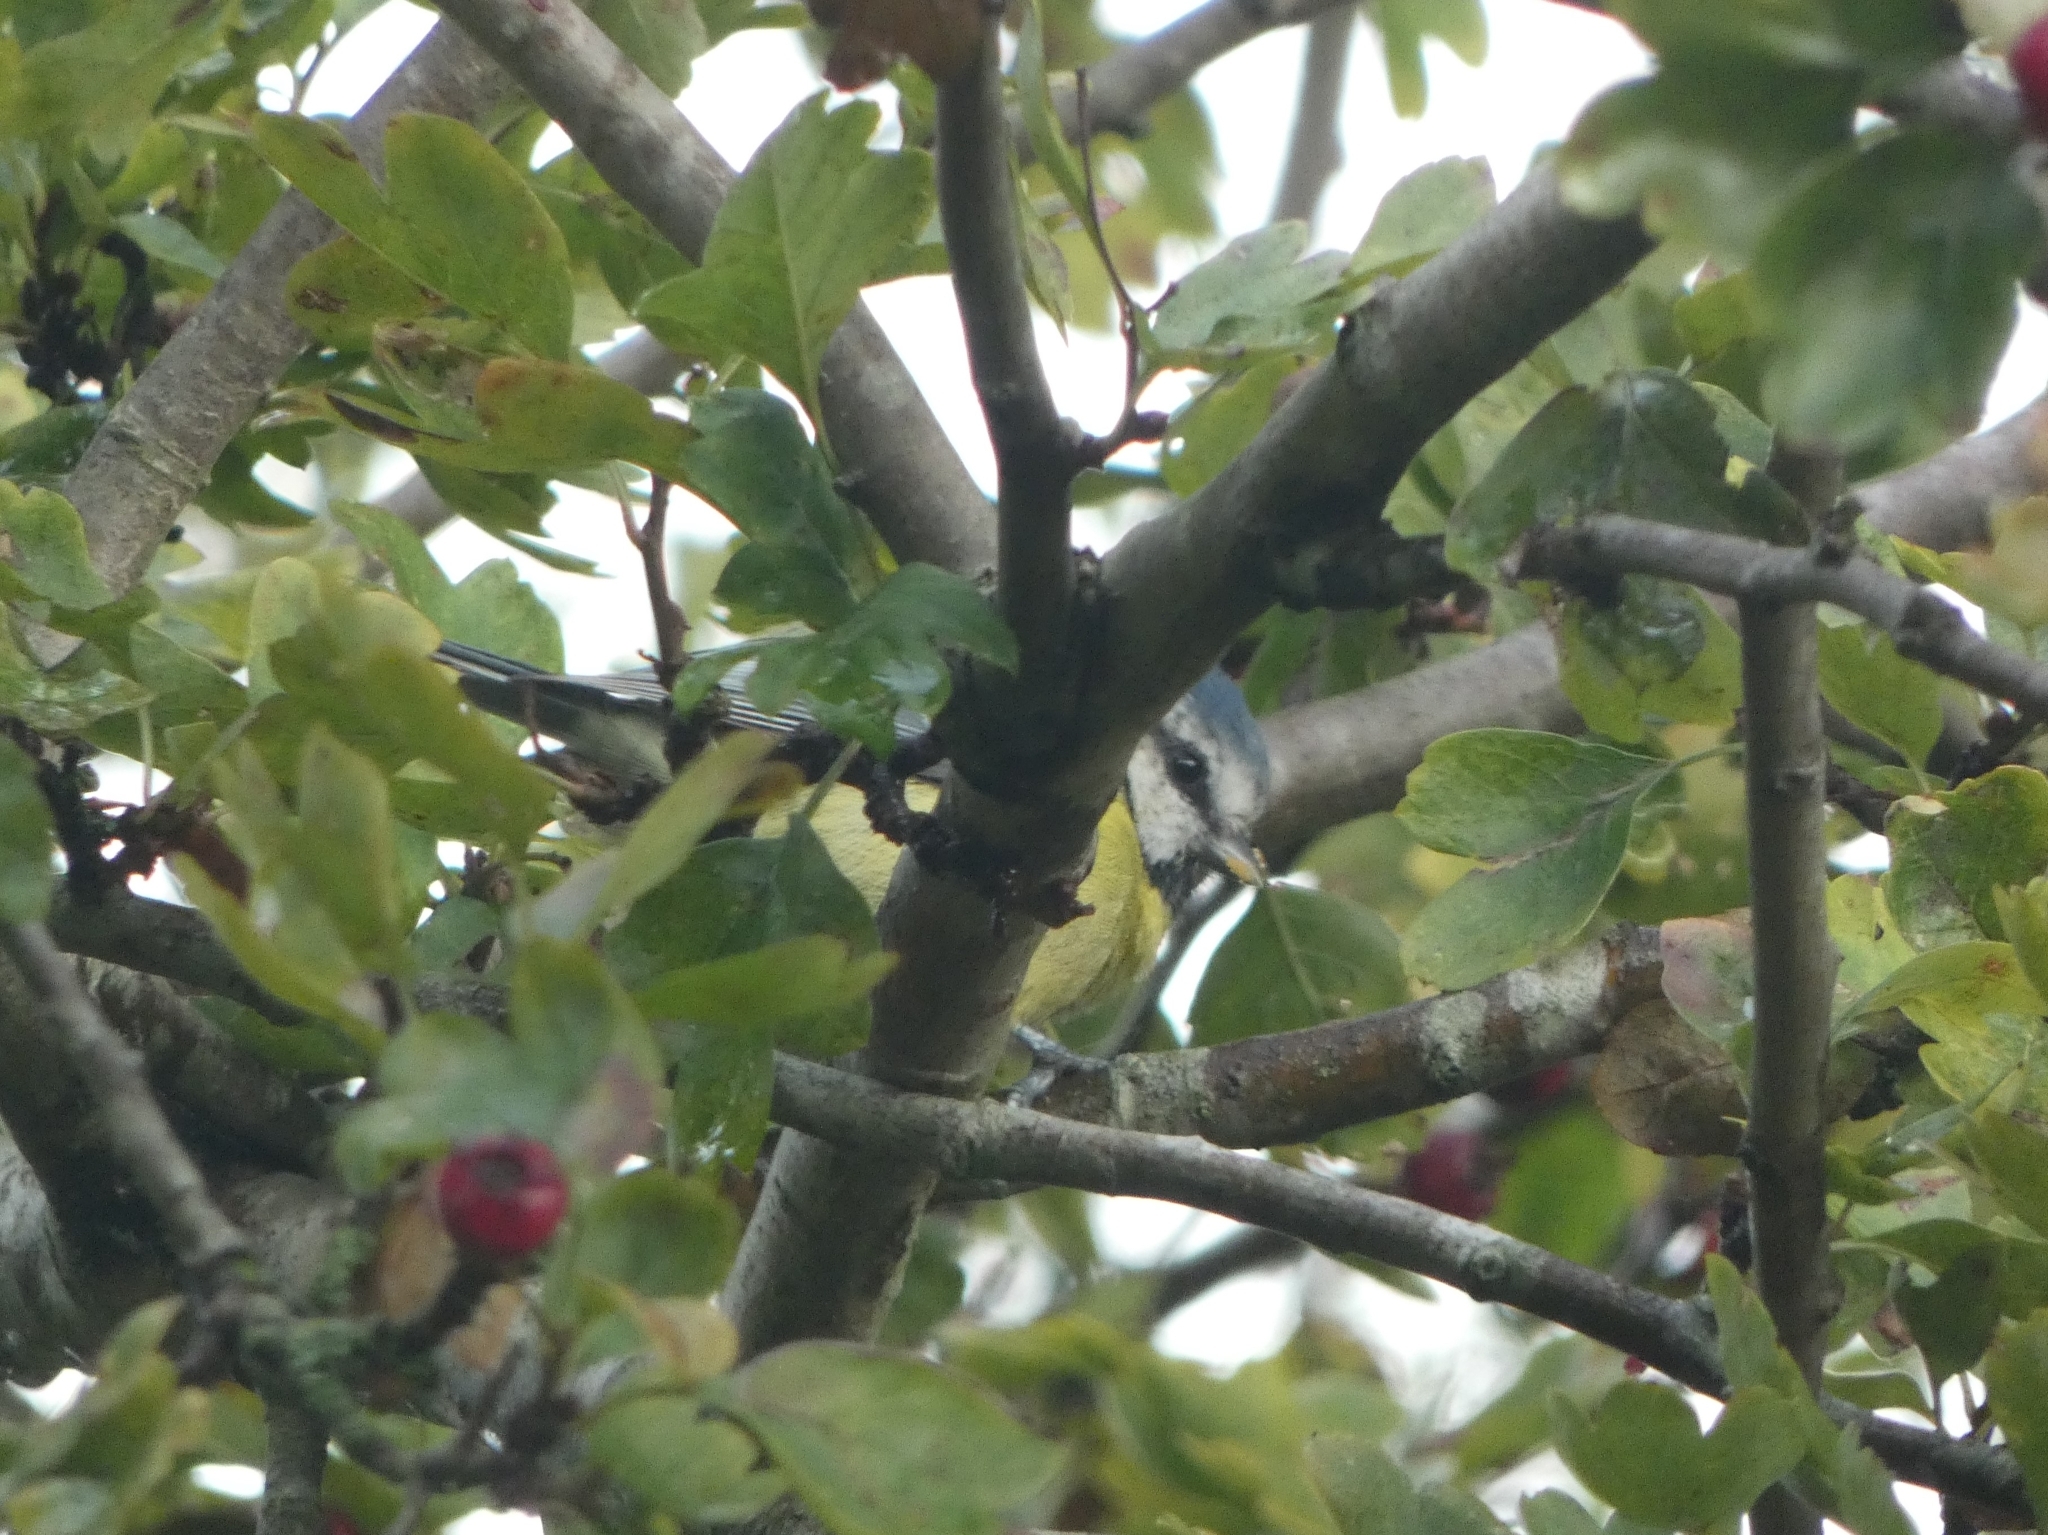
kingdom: Animalia
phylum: Chordata
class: Aves
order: Passeriformes
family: Paridae
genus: Cyanistes
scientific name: Cyanistes caeruleus
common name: Eurasian blue tit
